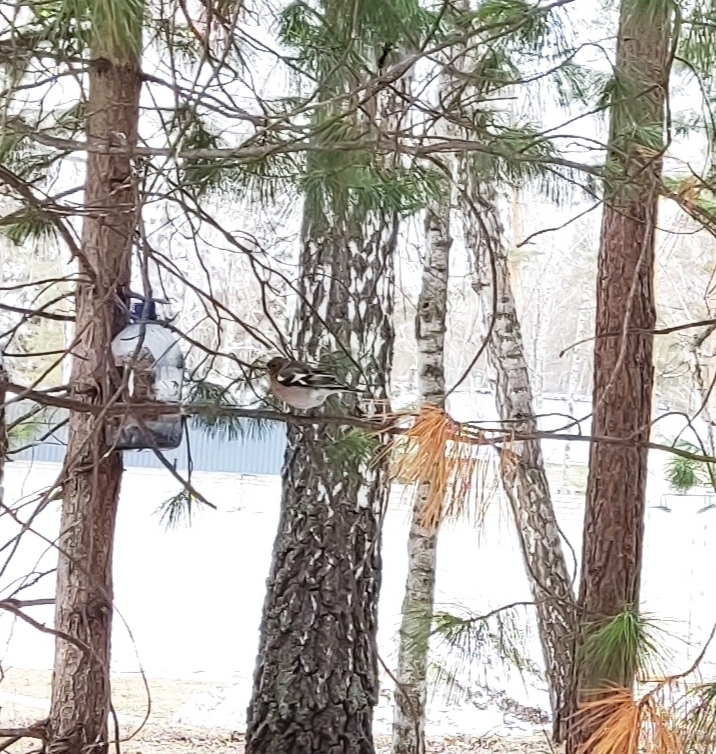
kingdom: Animalia
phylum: Chordata
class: Aves
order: Passeriformes
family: Fringillidae
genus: Fringilla
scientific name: Fringilla coelebs
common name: Common chaffinch
